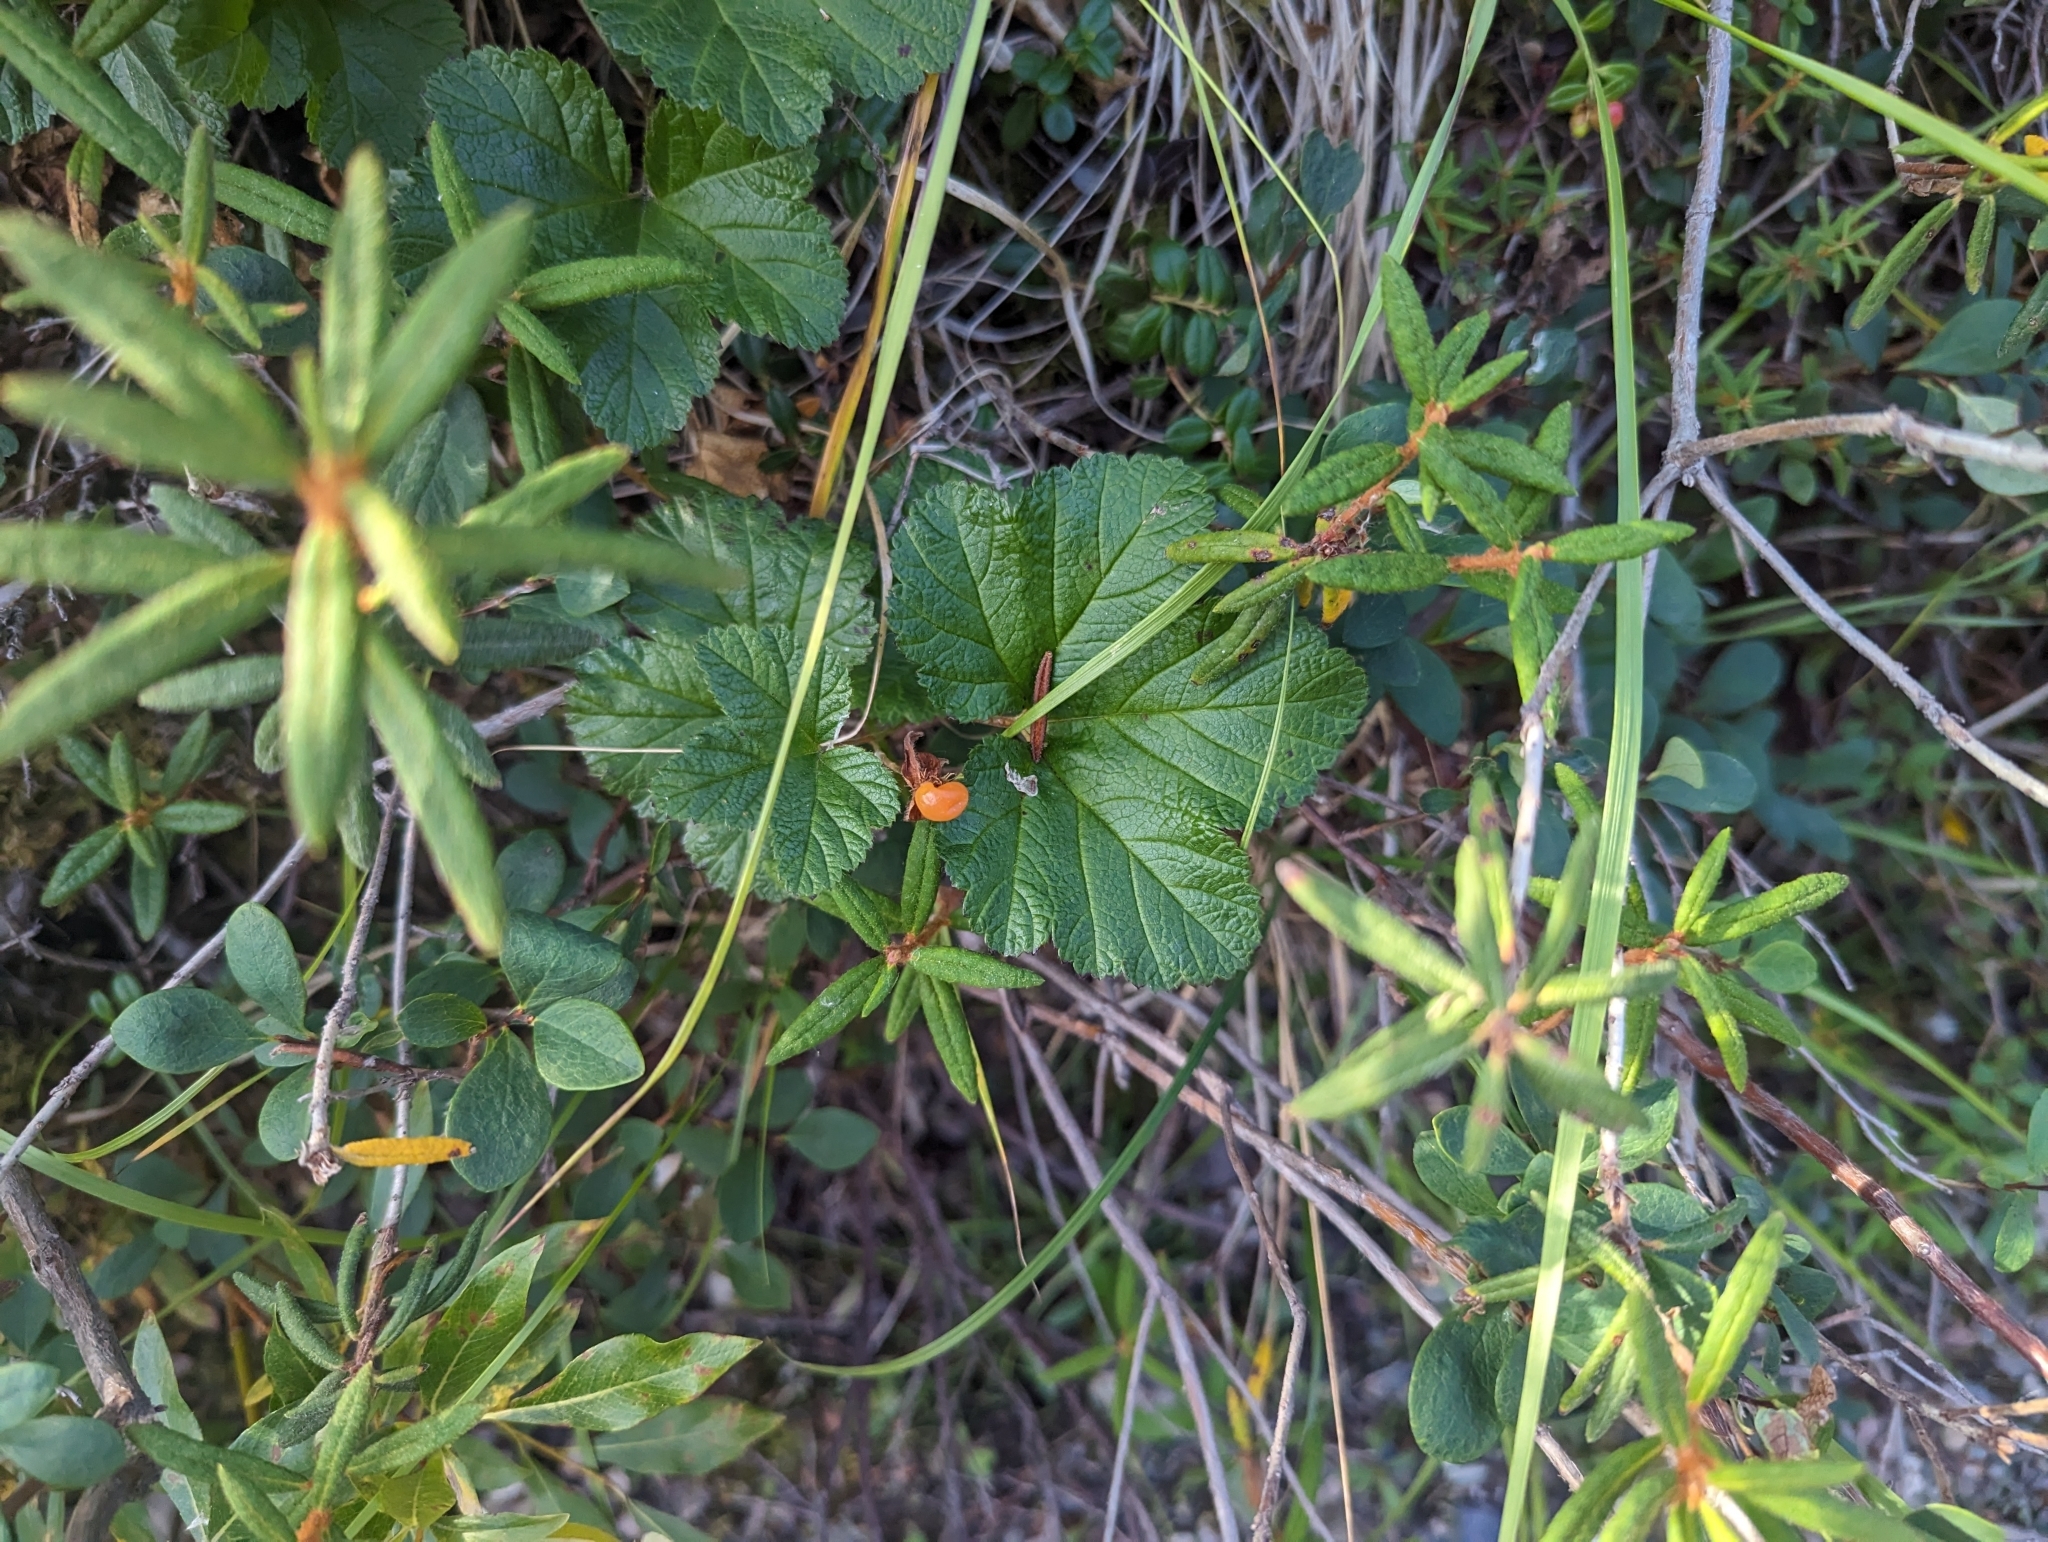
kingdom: Plantae
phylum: Tracheophyta
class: Magnoliopsida
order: Rosales
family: Rosaceae
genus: Rubus
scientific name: Rubus chamaemorus
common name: Cloudberry
